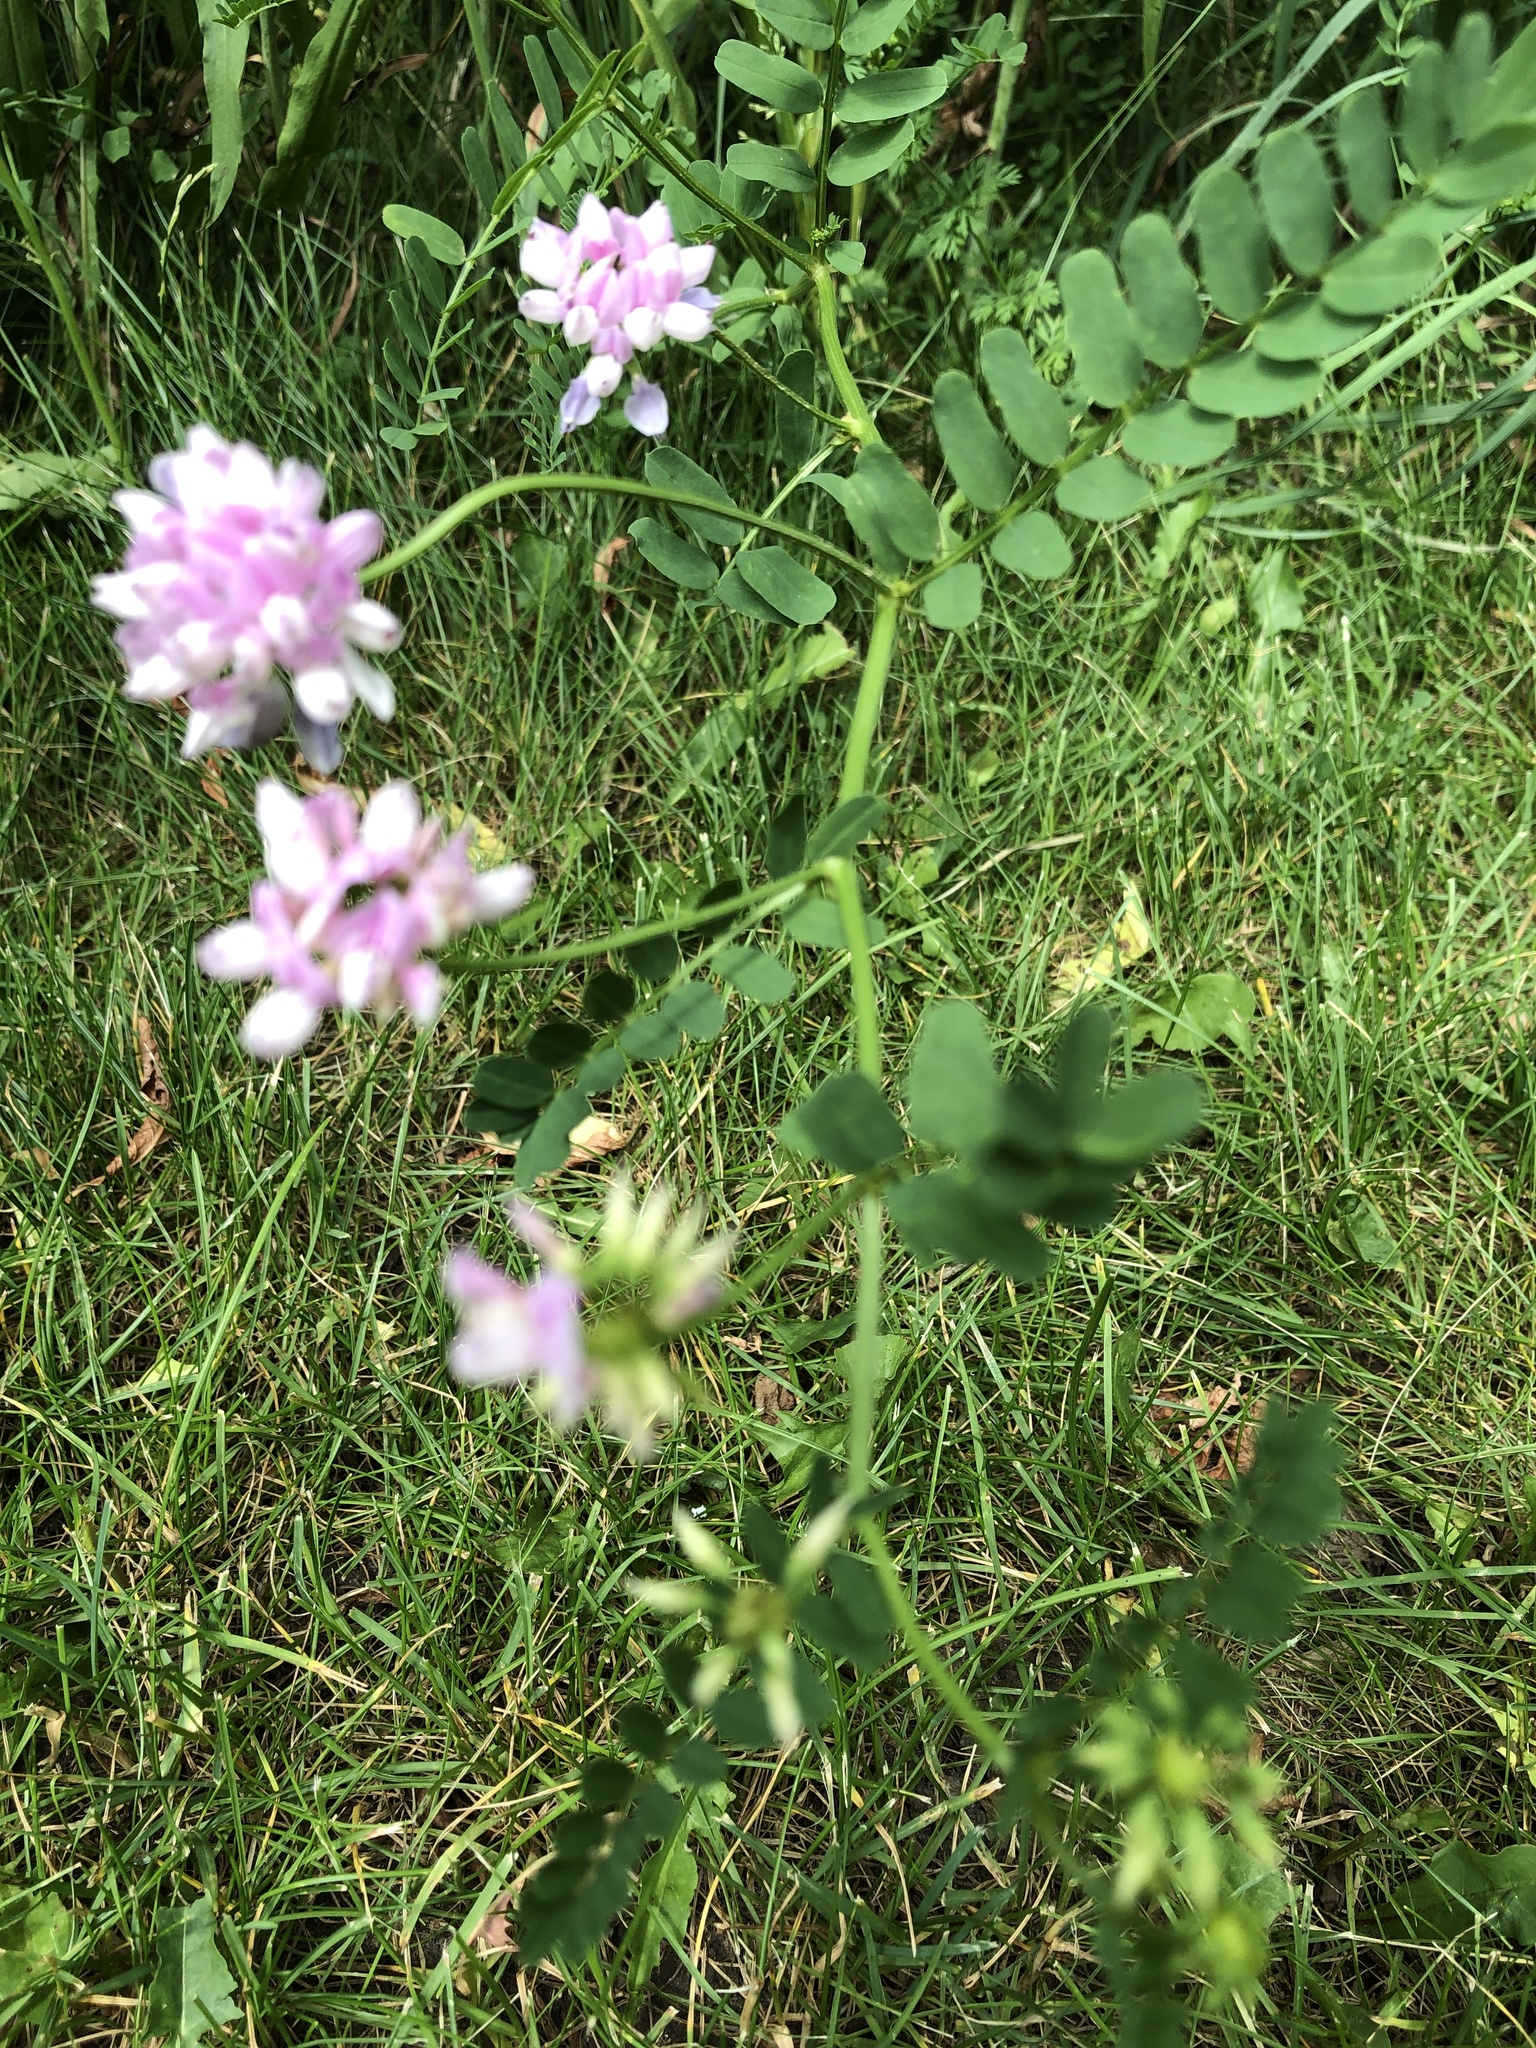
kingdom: Plantae
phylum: Tracheophyta
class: Magnoliopsida
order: Fabales
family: Fabaceae
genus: Coronilla
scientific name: Coronilla varia
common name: Crownvetch
